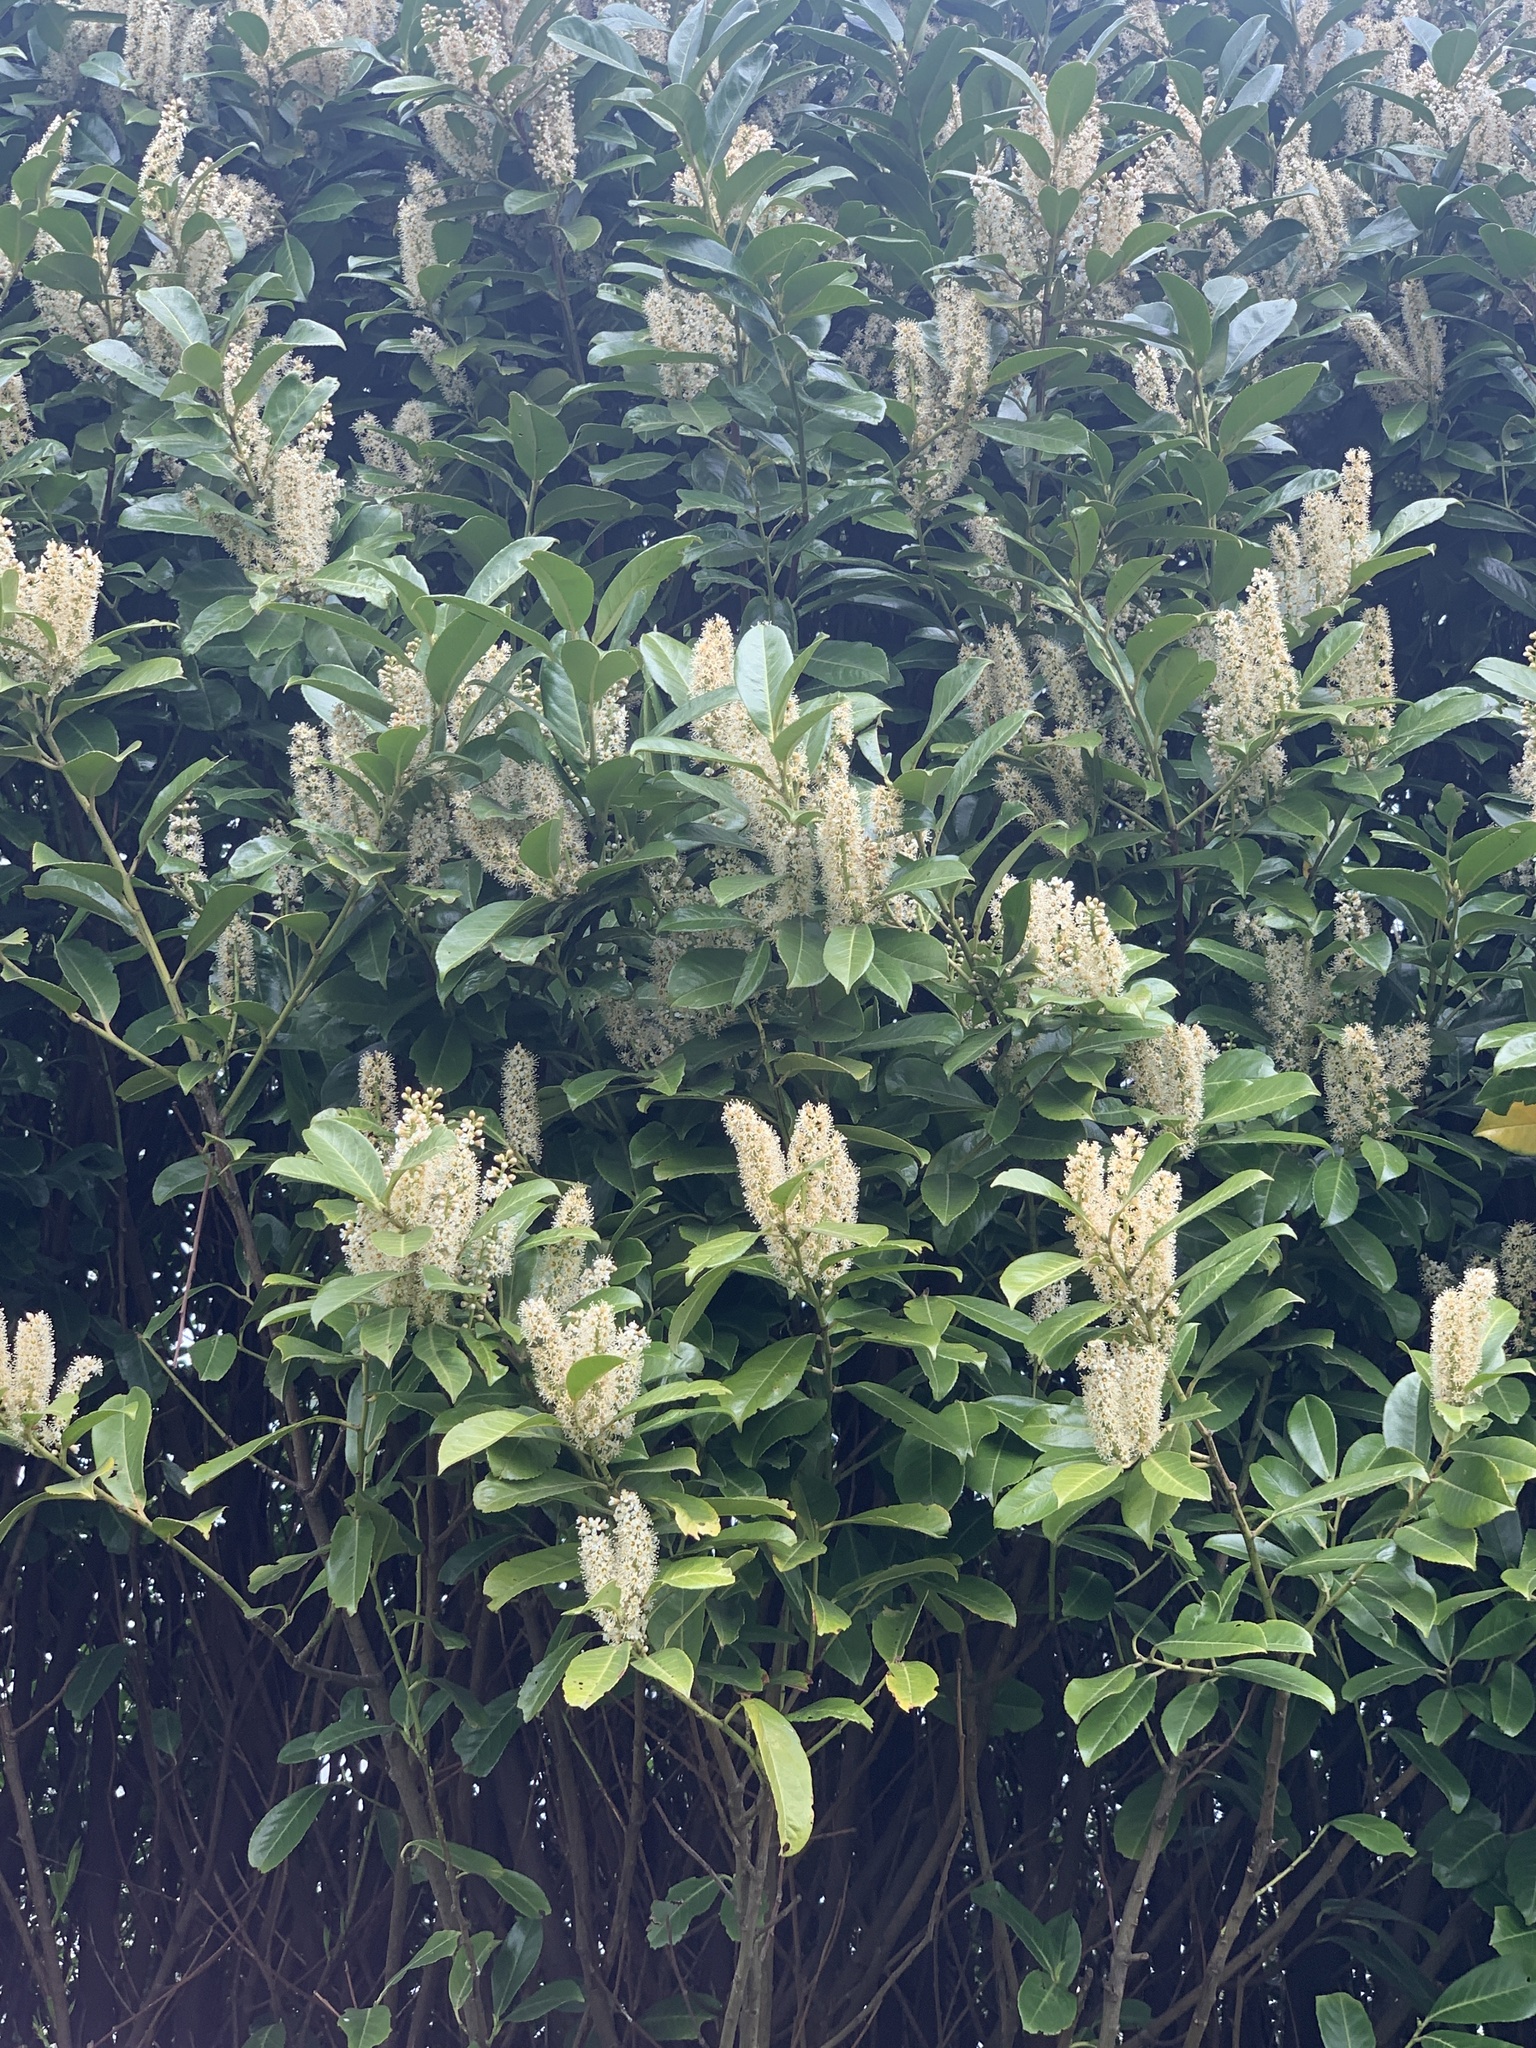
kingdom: Plantae
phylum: Tracheophyta
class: Magnoliopsida
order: Rosales
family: Rosaceae
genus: Prunus
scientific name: Prunus laurocerasus
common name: Cherry laurel
